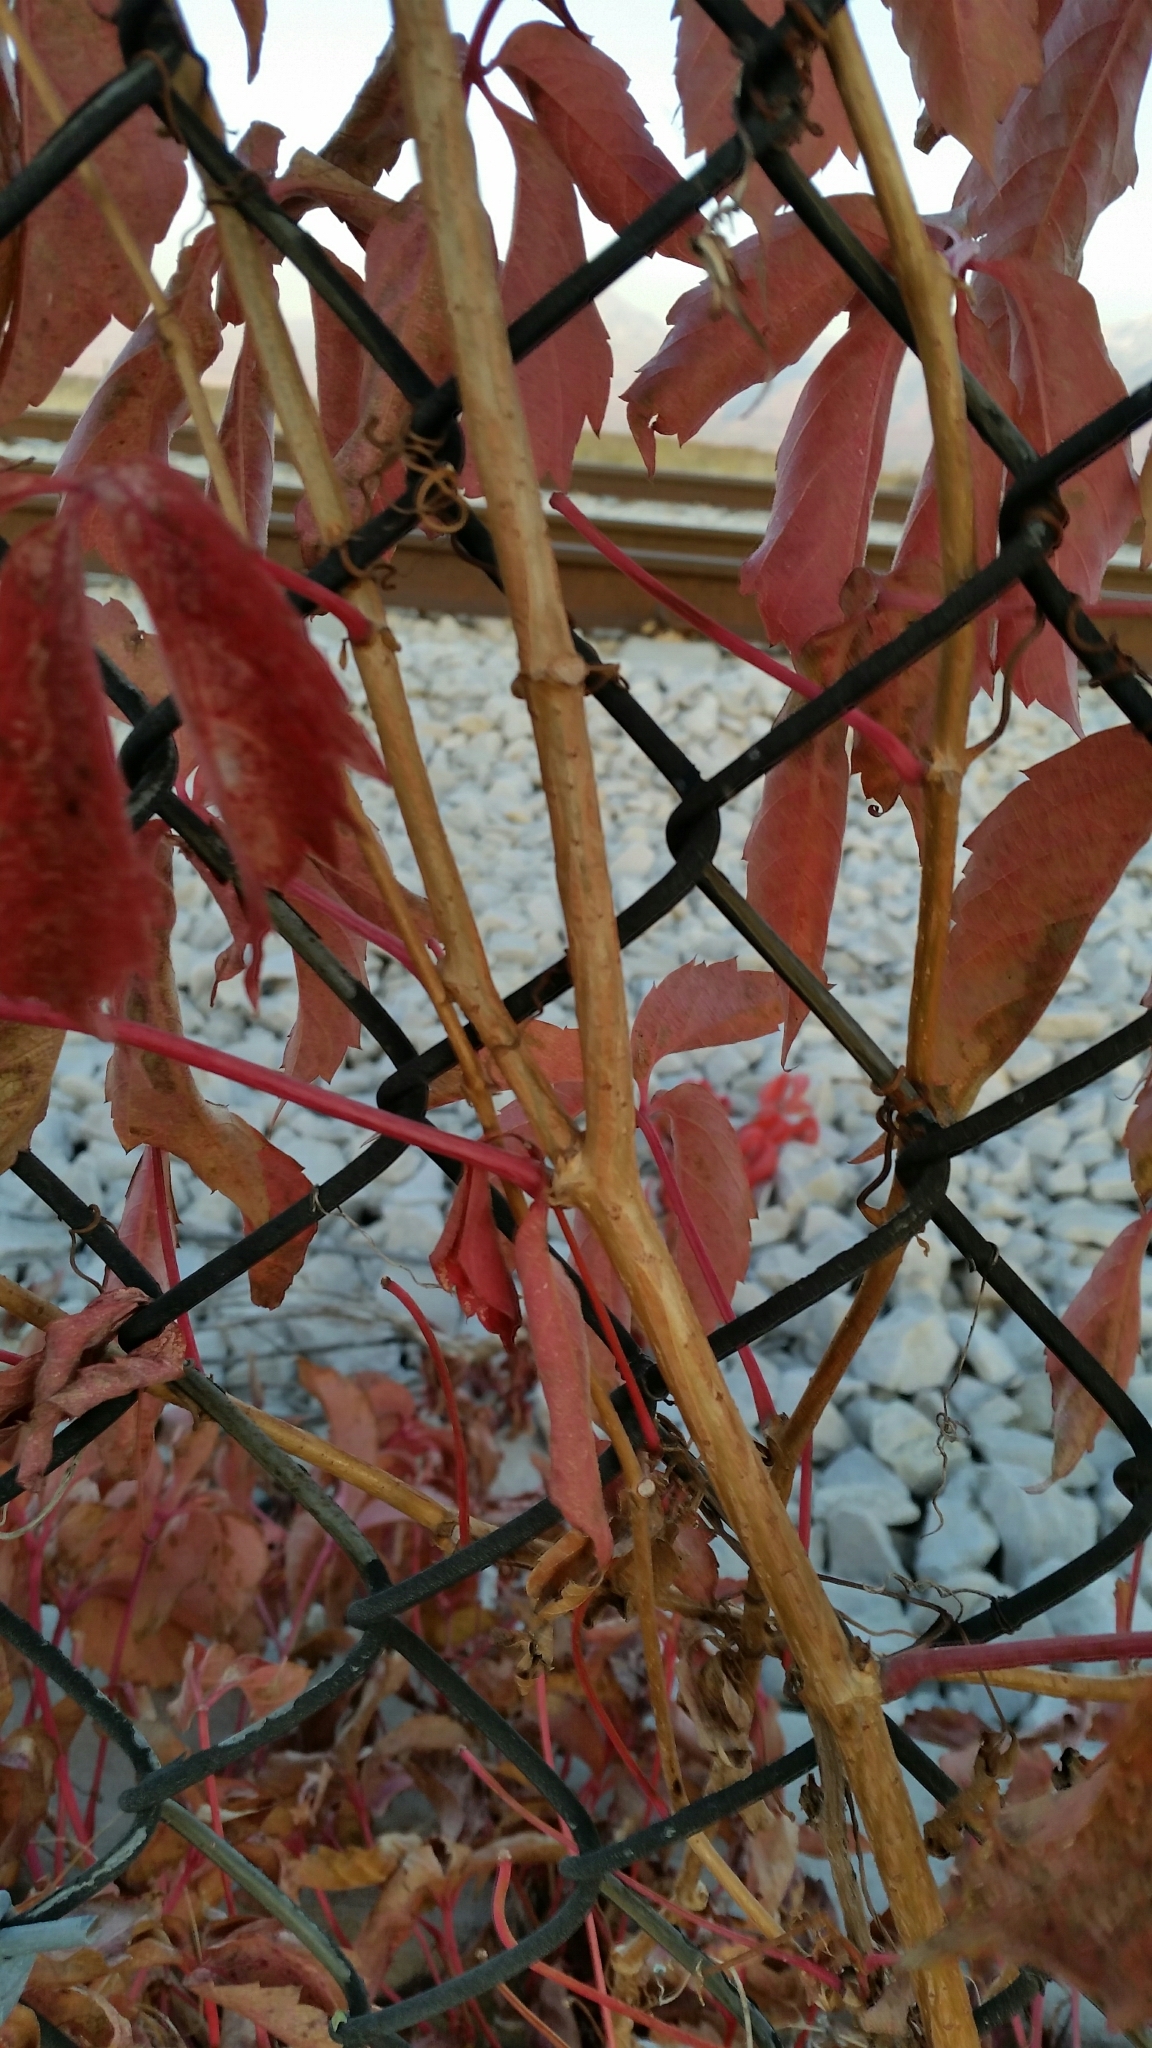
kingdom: Plantae
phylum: Tracheophyta
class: Magnoliopsida
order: Vitales
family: Vitaceae
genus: Parthenocissus
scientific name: Parthenocissus quinquefolia
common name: Virginia-creeper
